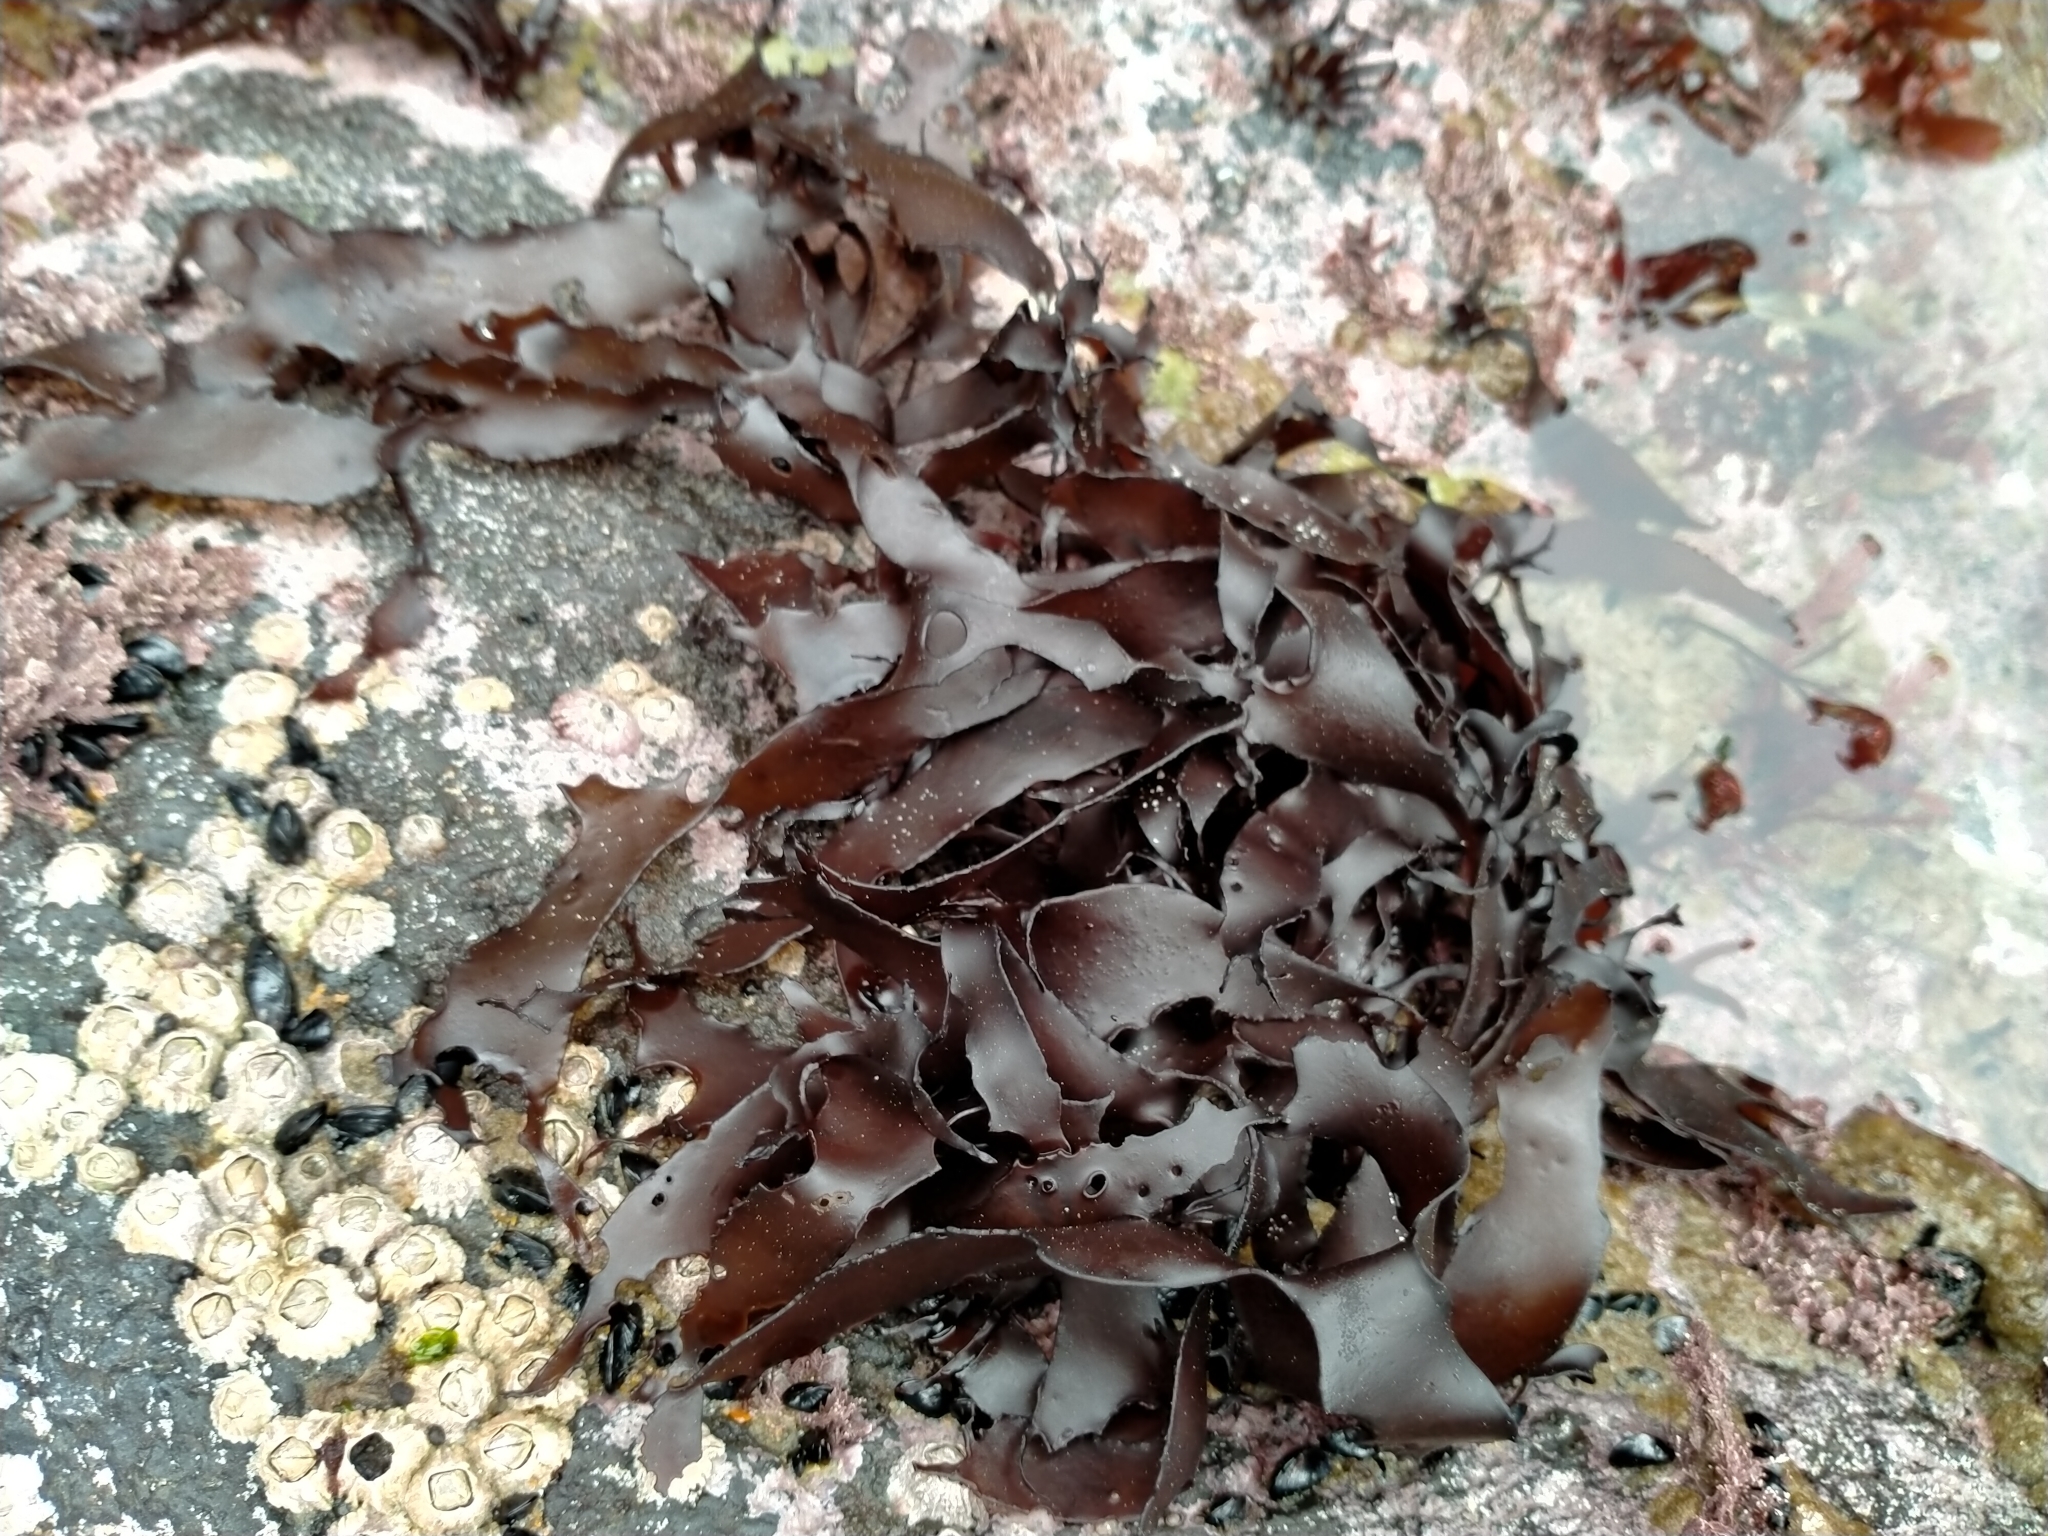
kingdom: Plantae
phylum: Rhodophyta
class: Florideophyceae
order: Halymeniales
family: Halymeniaceae
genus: Pachymenia
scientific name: Pachymenia dichotoma
